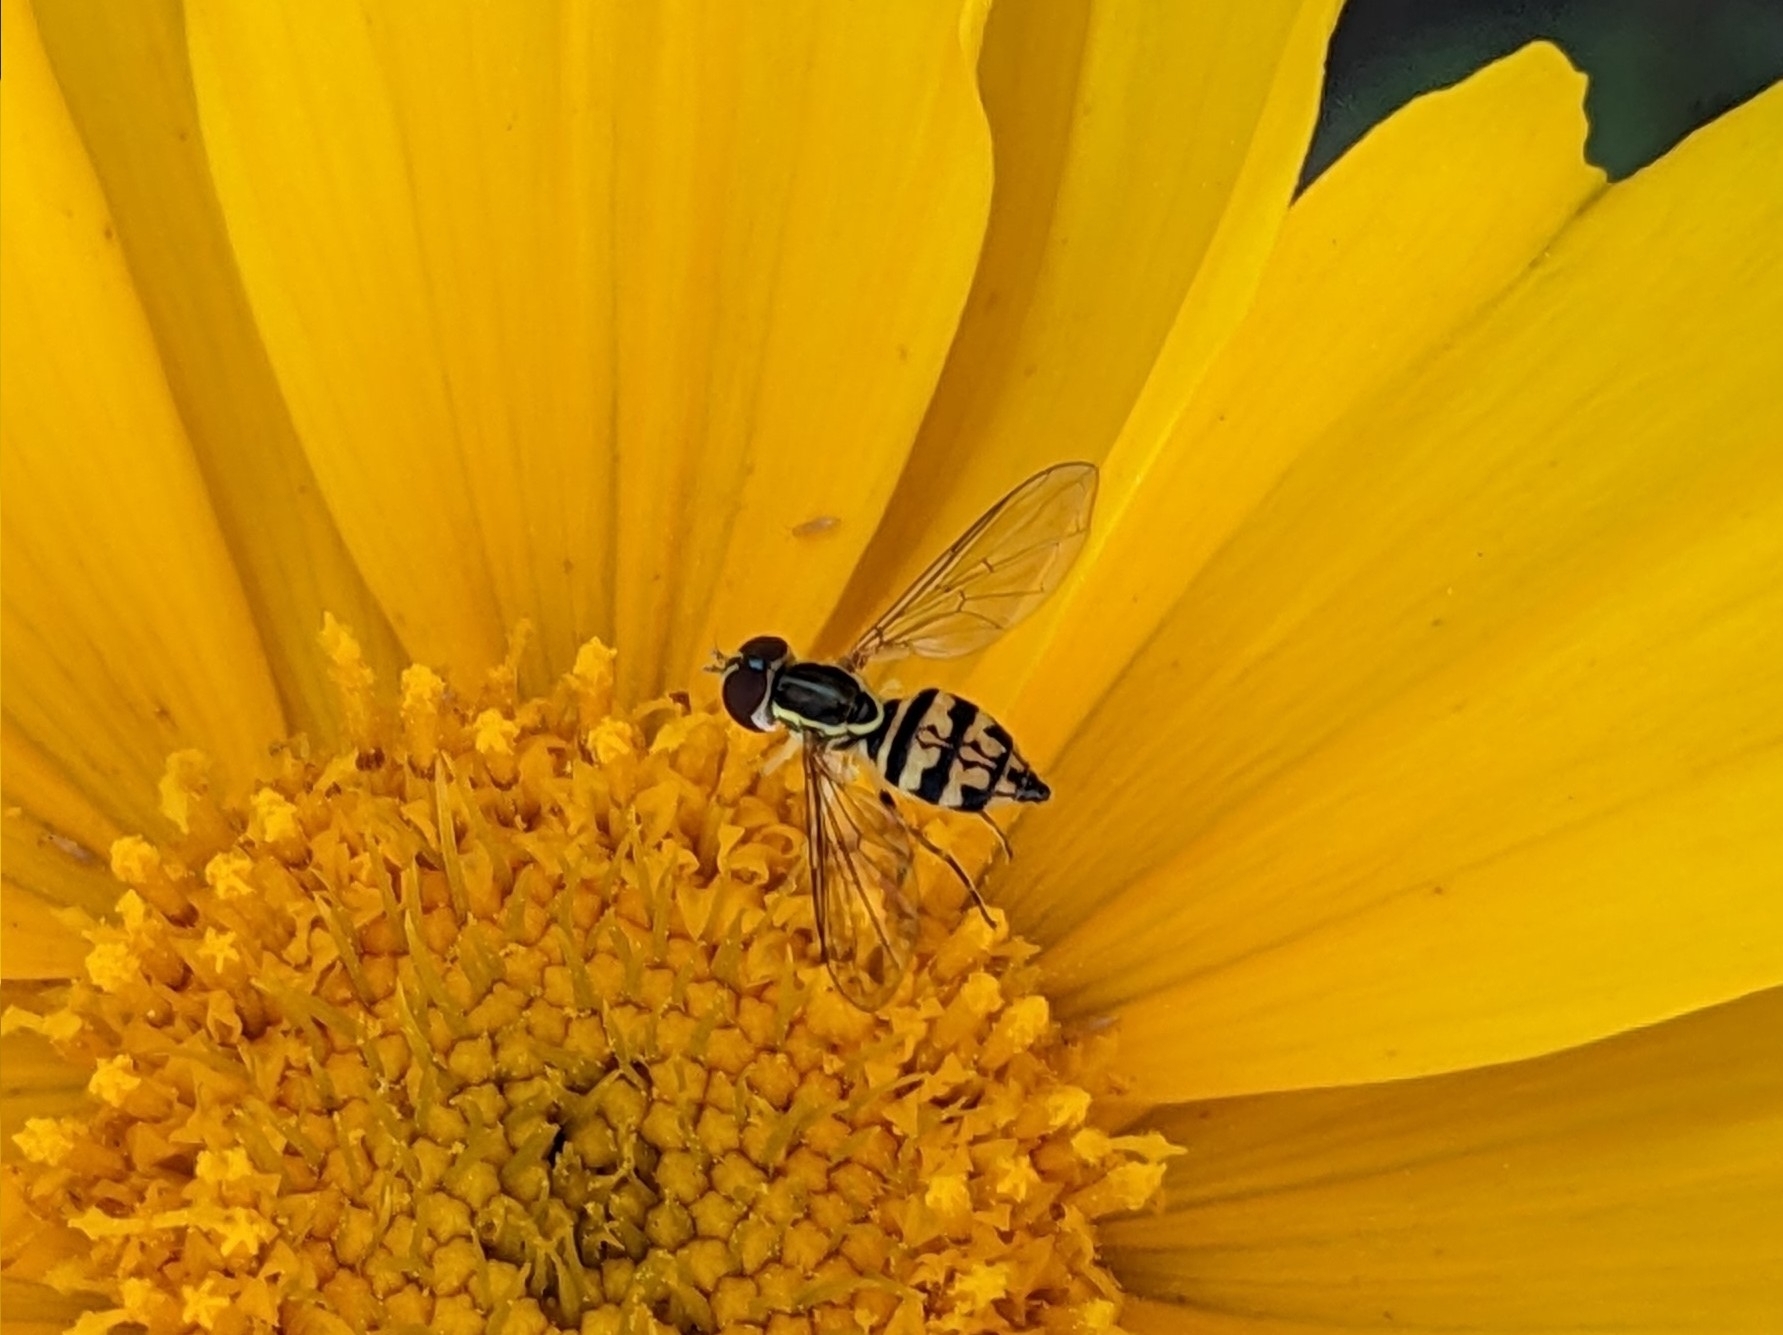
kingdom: Animalia
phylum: Arthropoda
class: Insecta
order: Diptera
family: Syrphidae
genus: Toxomerus
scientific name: Toxomerus geminatus
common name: Eastern calligrapher
